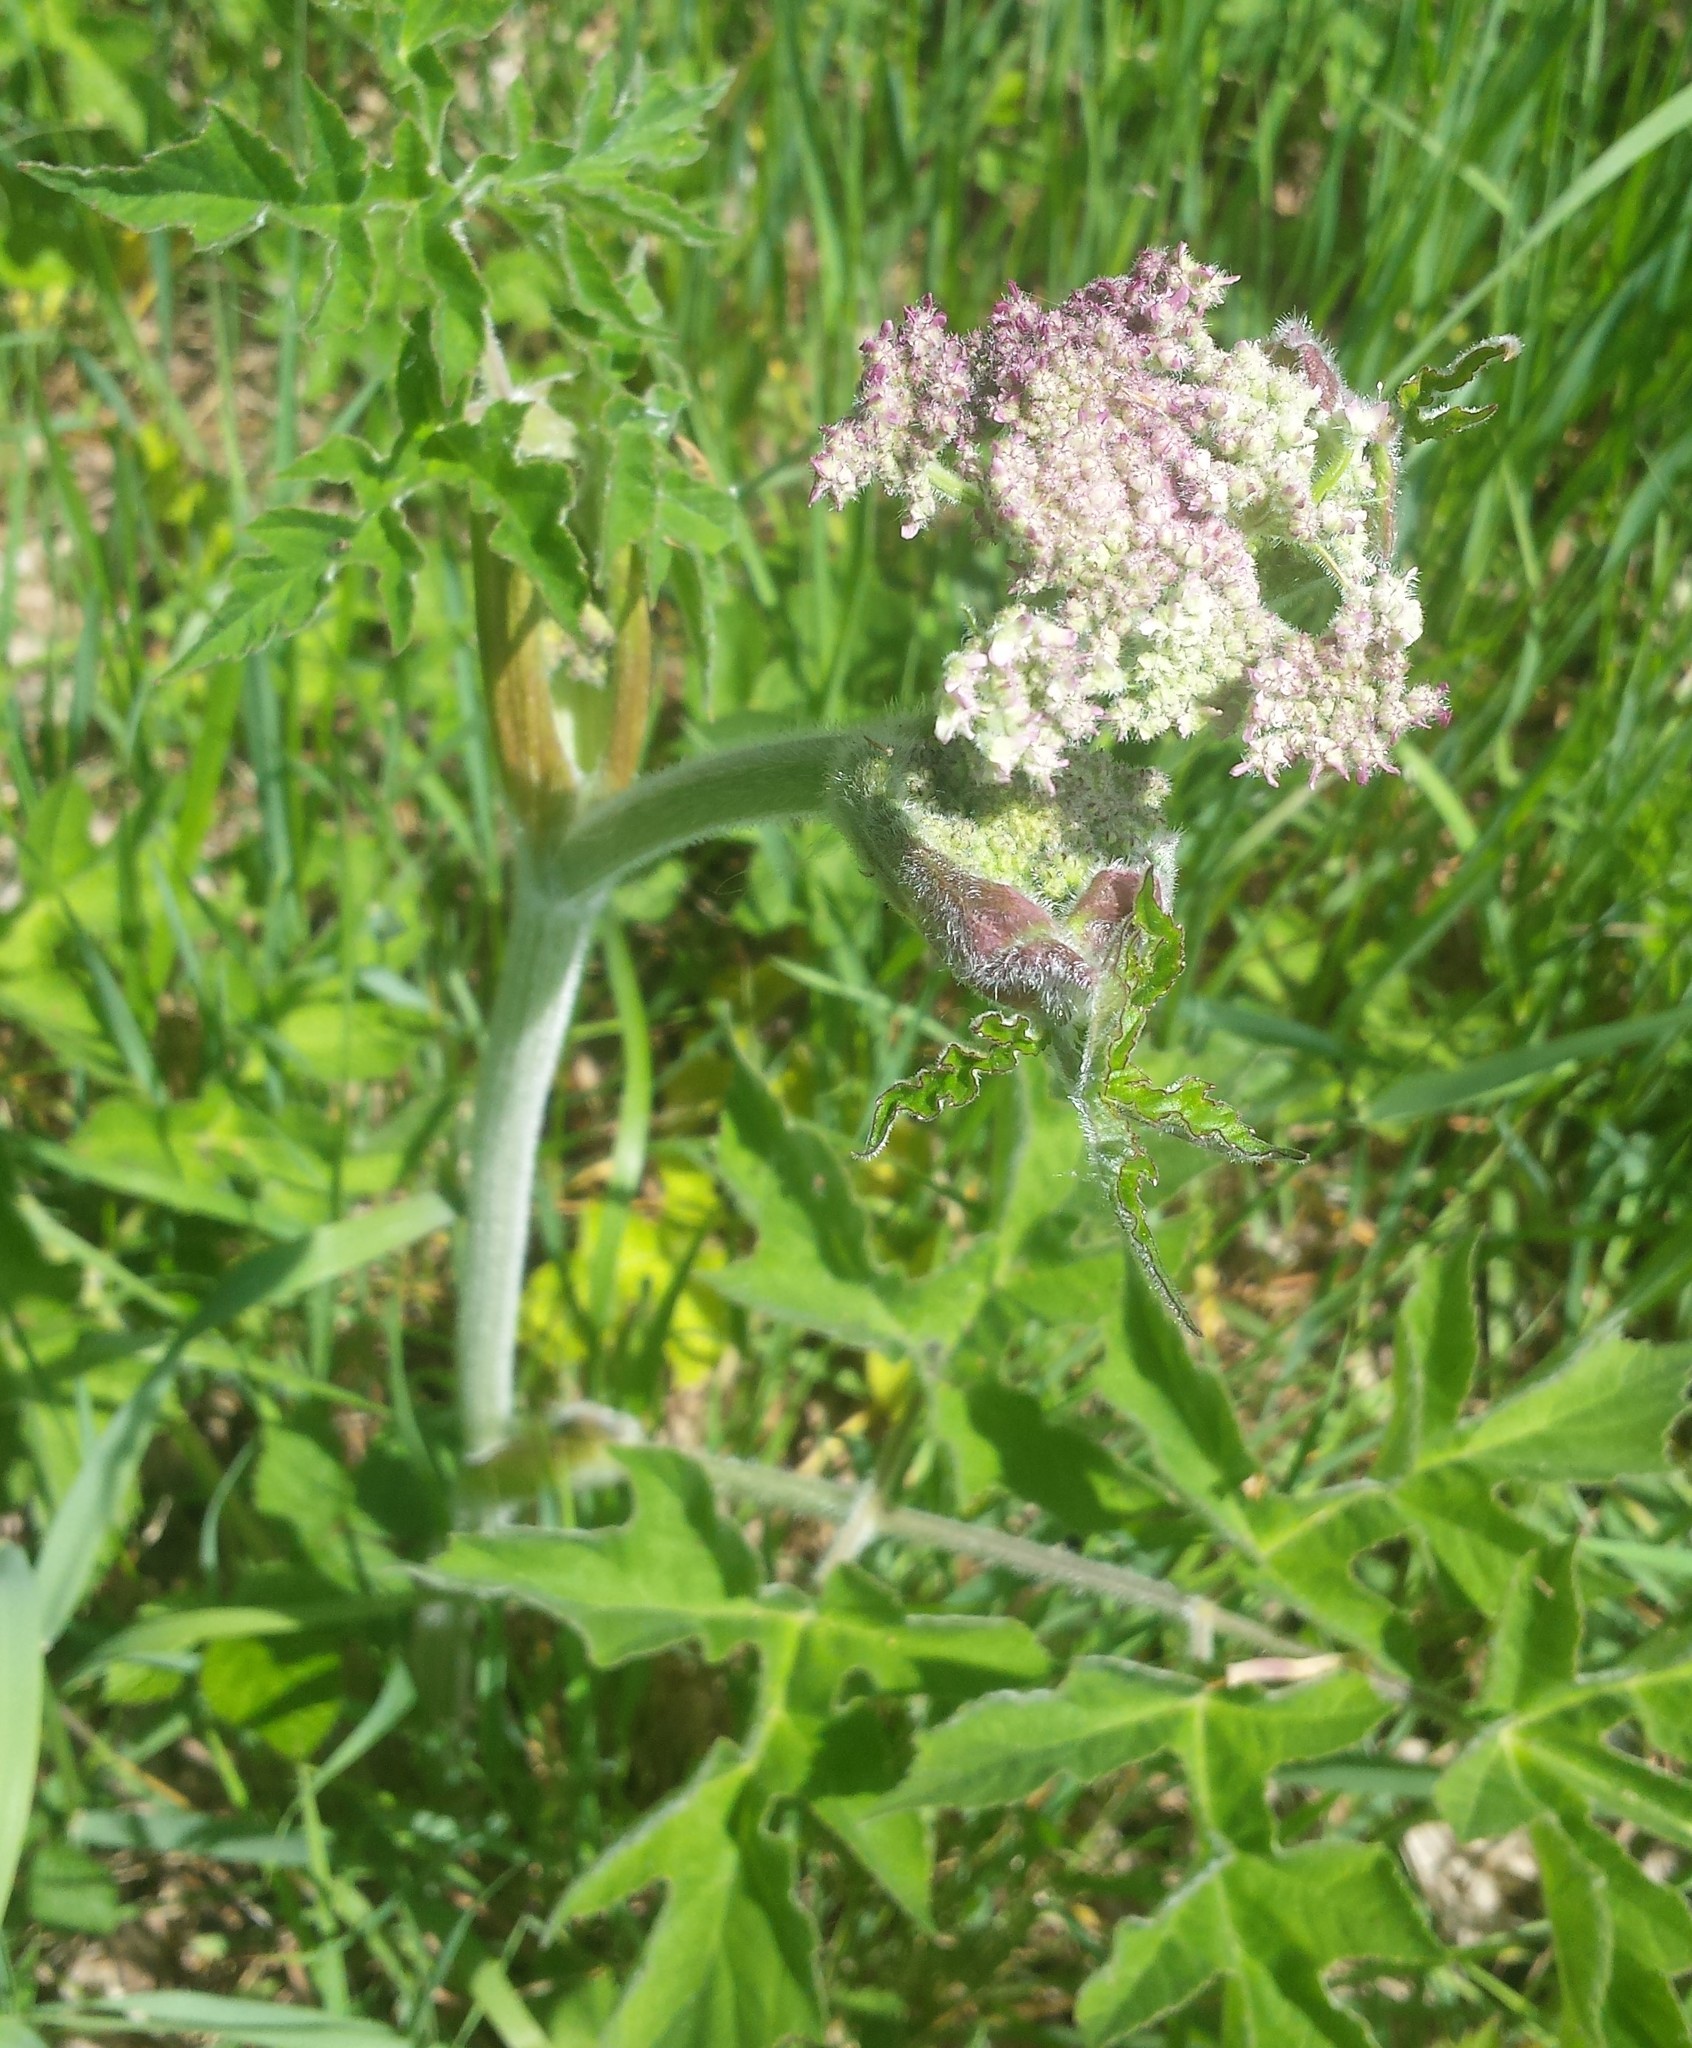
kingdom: Plantae
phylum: Tracheophyta
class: Magnoliopsida
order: Apiales
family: Apiaceae
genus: Heracleum
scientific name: Heracleum sphondylium
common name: Hogweed
